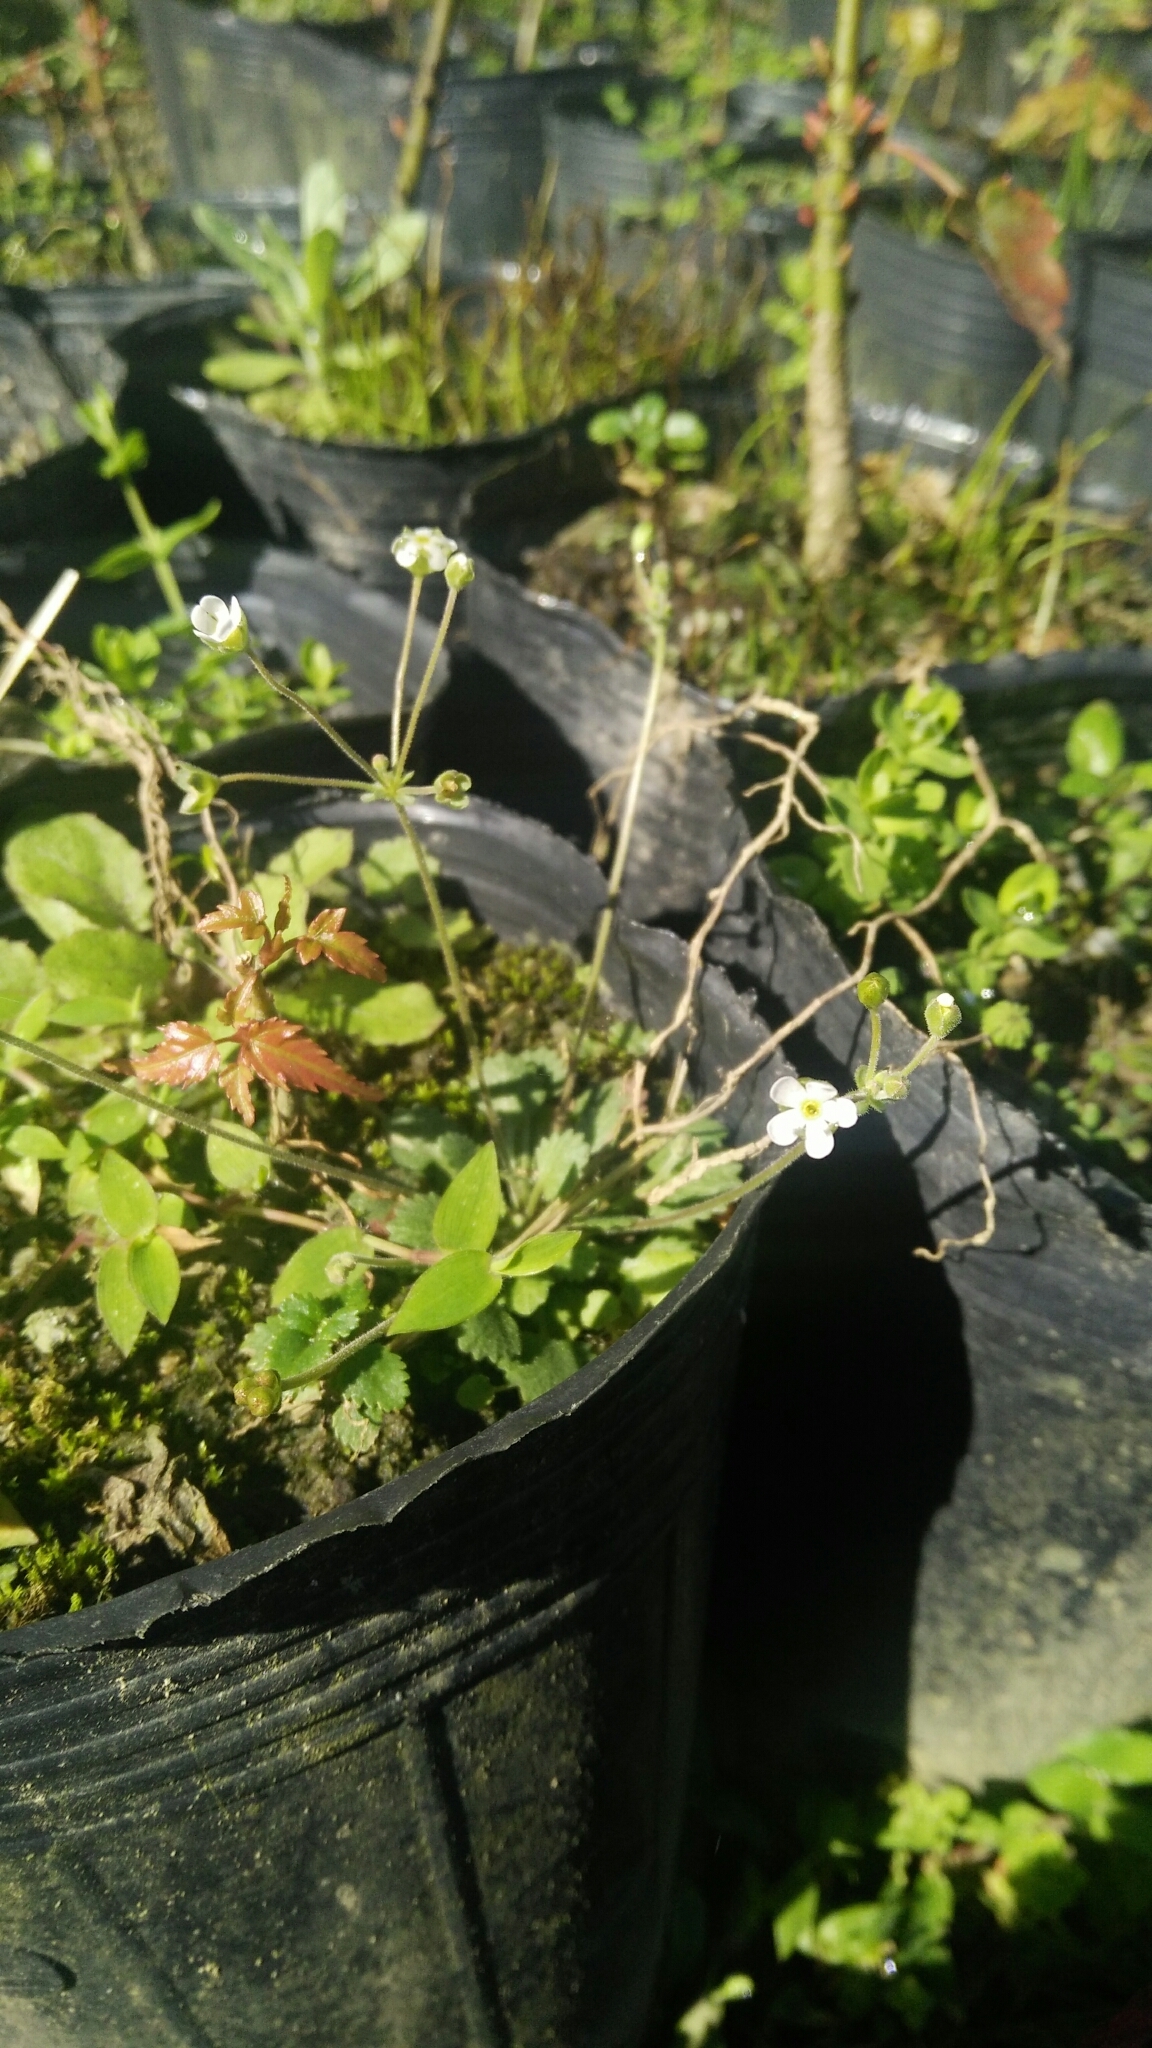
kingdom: Plantae
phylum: Tracheophyta
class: Magnoliopsida
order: Ericales
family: Primulaceae
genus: Androsace
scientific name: Androsace umbellata
